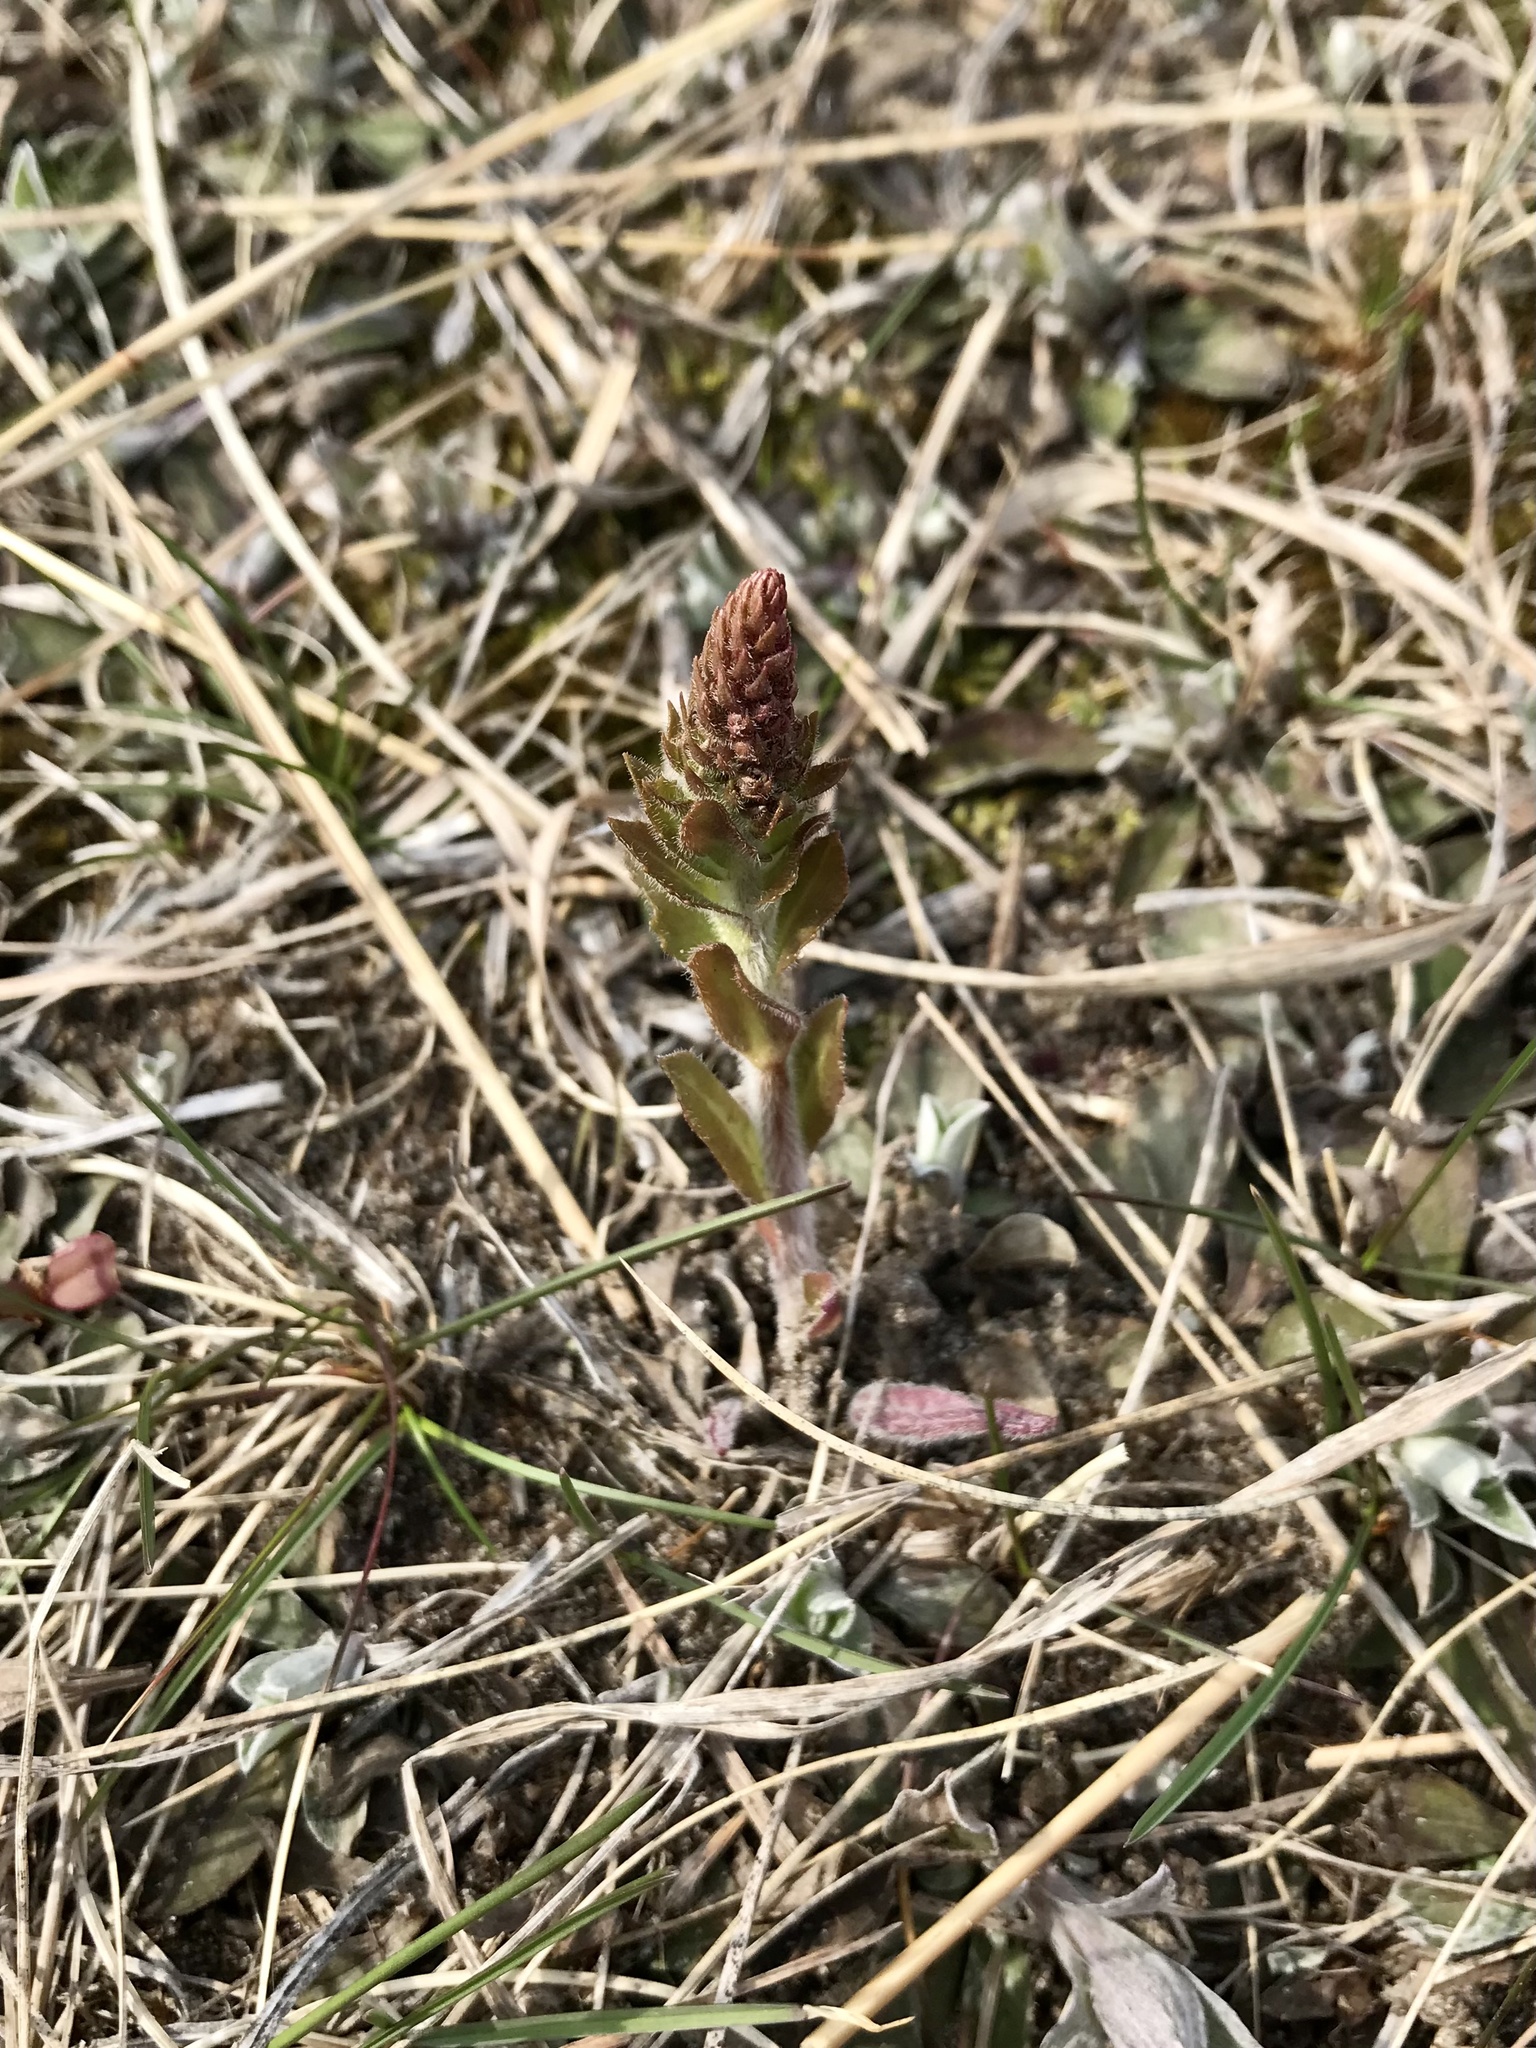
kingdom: Plantae
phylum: Tracheophyta
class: Magnoliopsida
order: Lamiales
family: Plantaginaceae
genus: Synthyris
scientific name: Synthyris bullii
